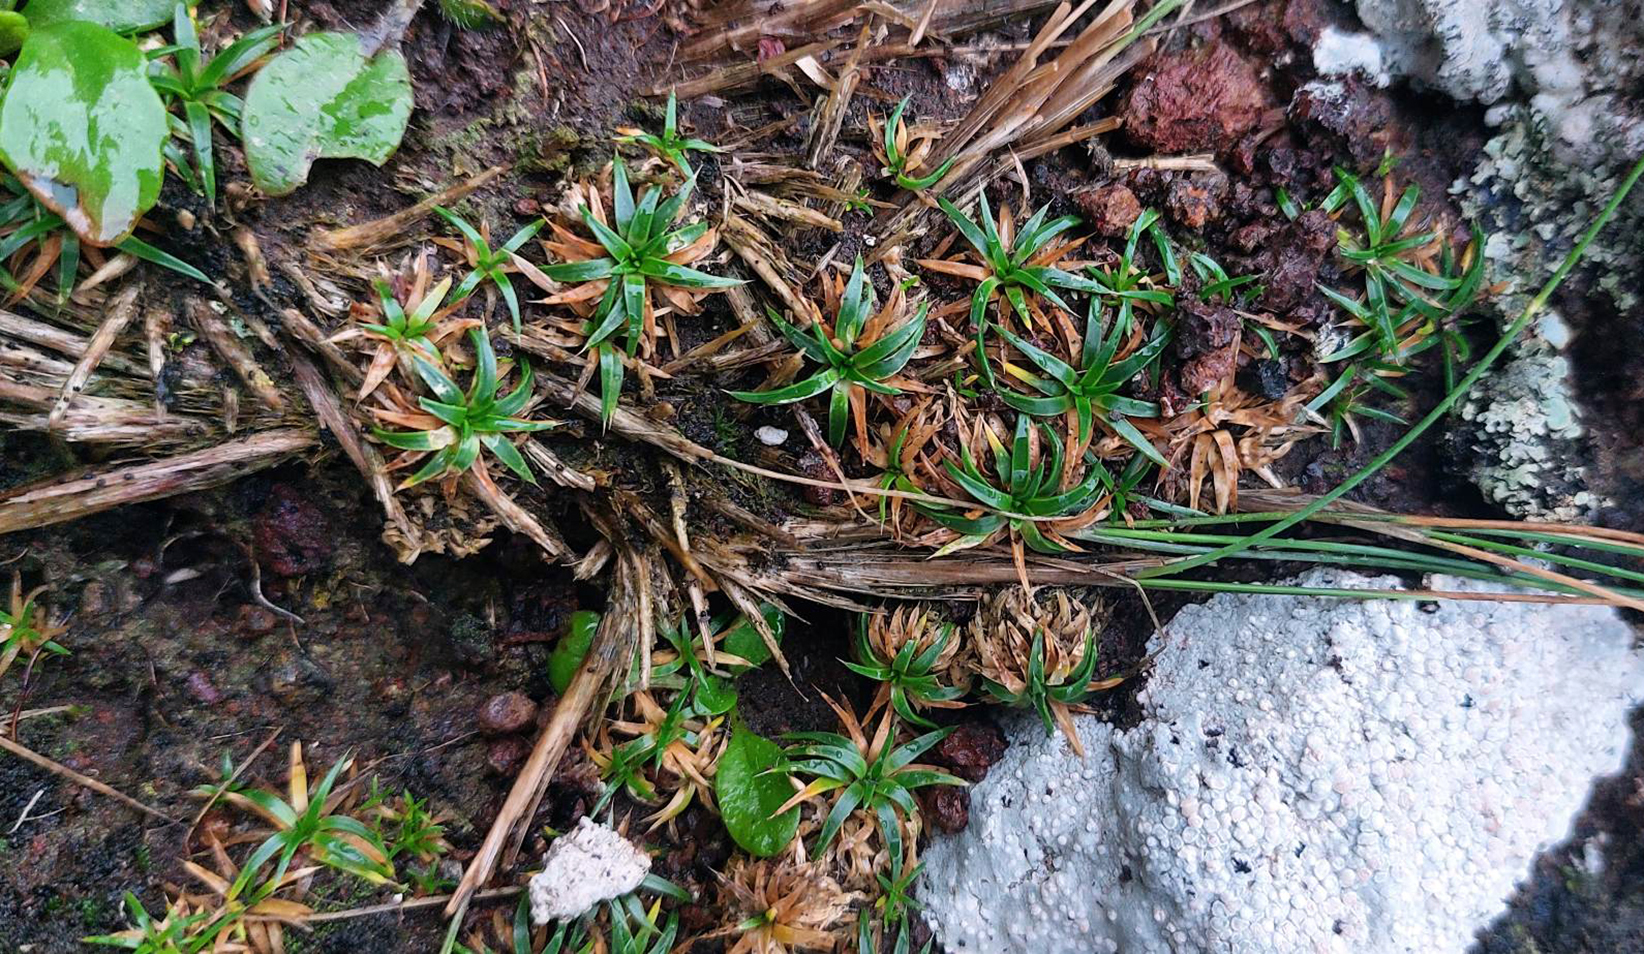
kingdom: Plantae
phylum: Tracheophyta
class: Magnoliopsida
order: Caryophyllales
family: Caryophyllaceae
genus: Colobanthus
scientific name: Colobanthus muelleri
